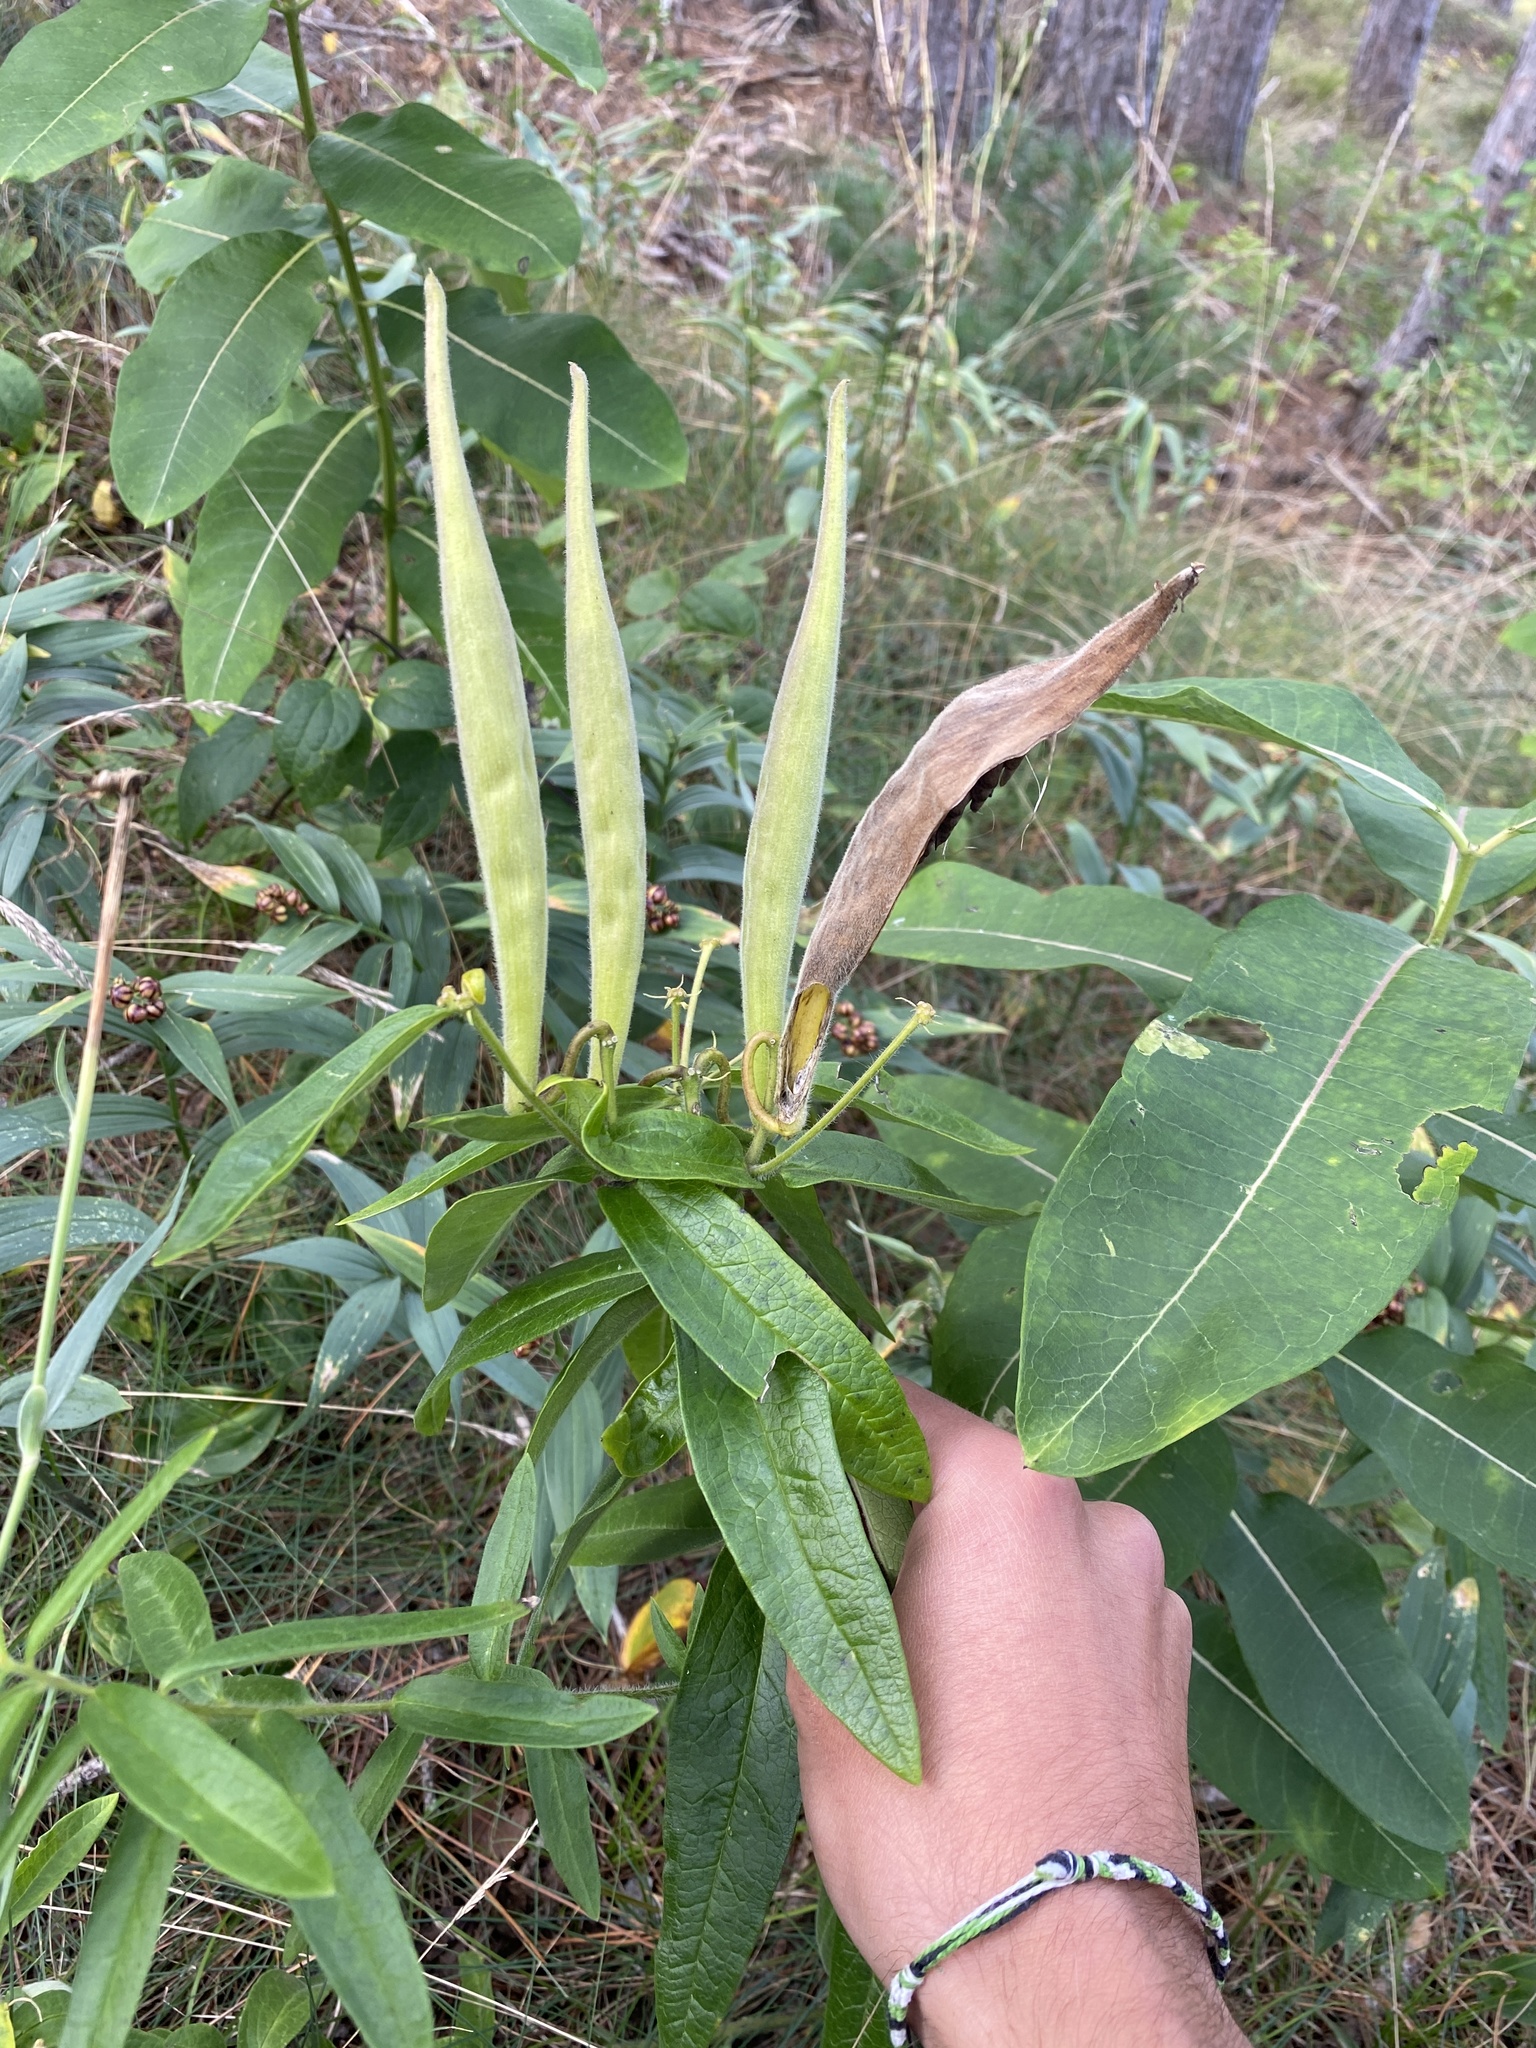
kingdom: Plantae
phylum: Tracheophyta
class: Magnoliopsida
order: Gentianales
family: Apocynaceae
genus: Asclepias
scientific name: Asclepias tuberosa
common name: Butterfly milkweed
